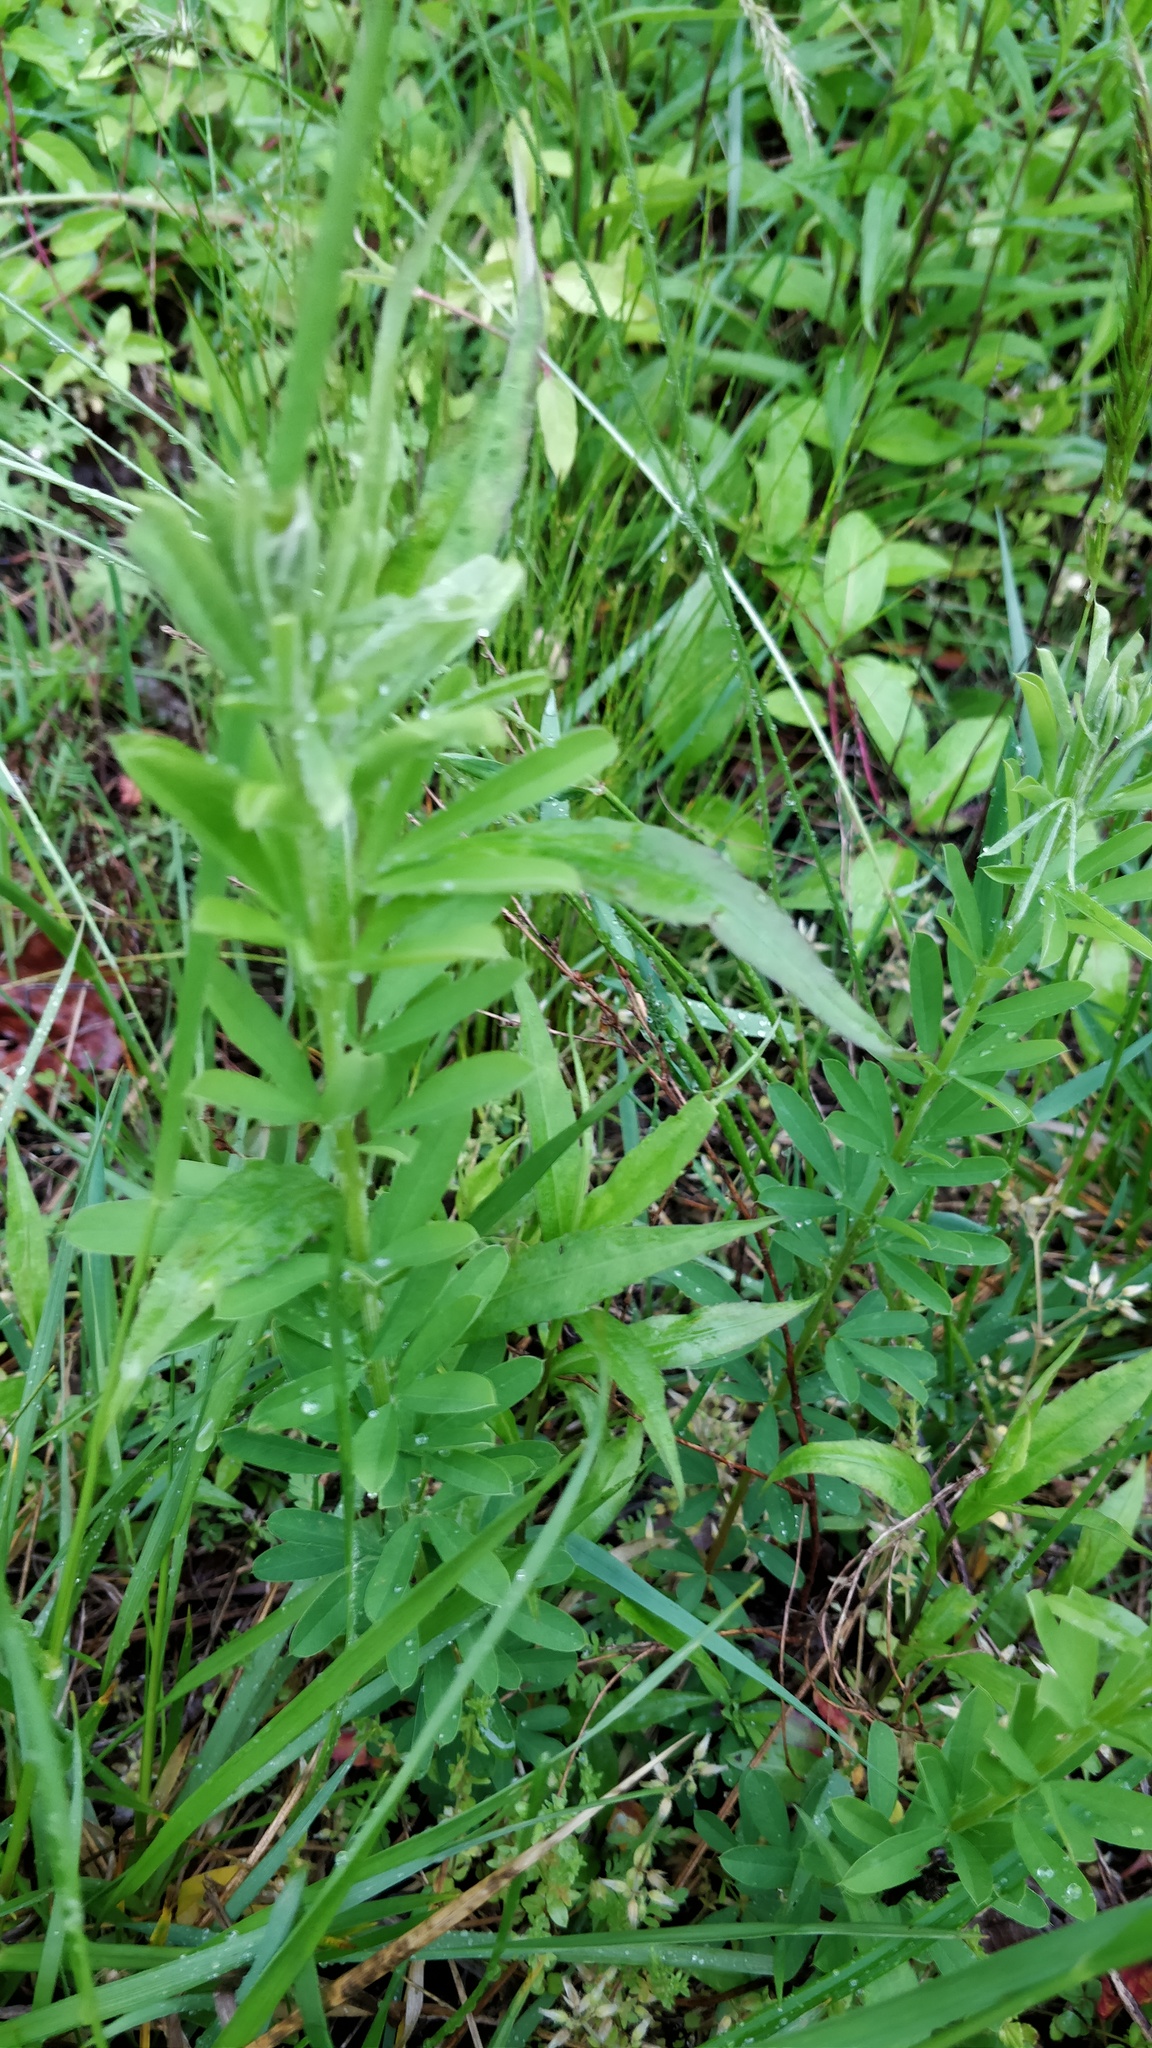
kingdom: Plantae
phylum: Tracheophyta
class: Magnoliopsida
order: Fabales
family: Fabaceae
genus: Lespedeza
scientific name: Lespedeza cuneata
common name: Chinese bush-clover
